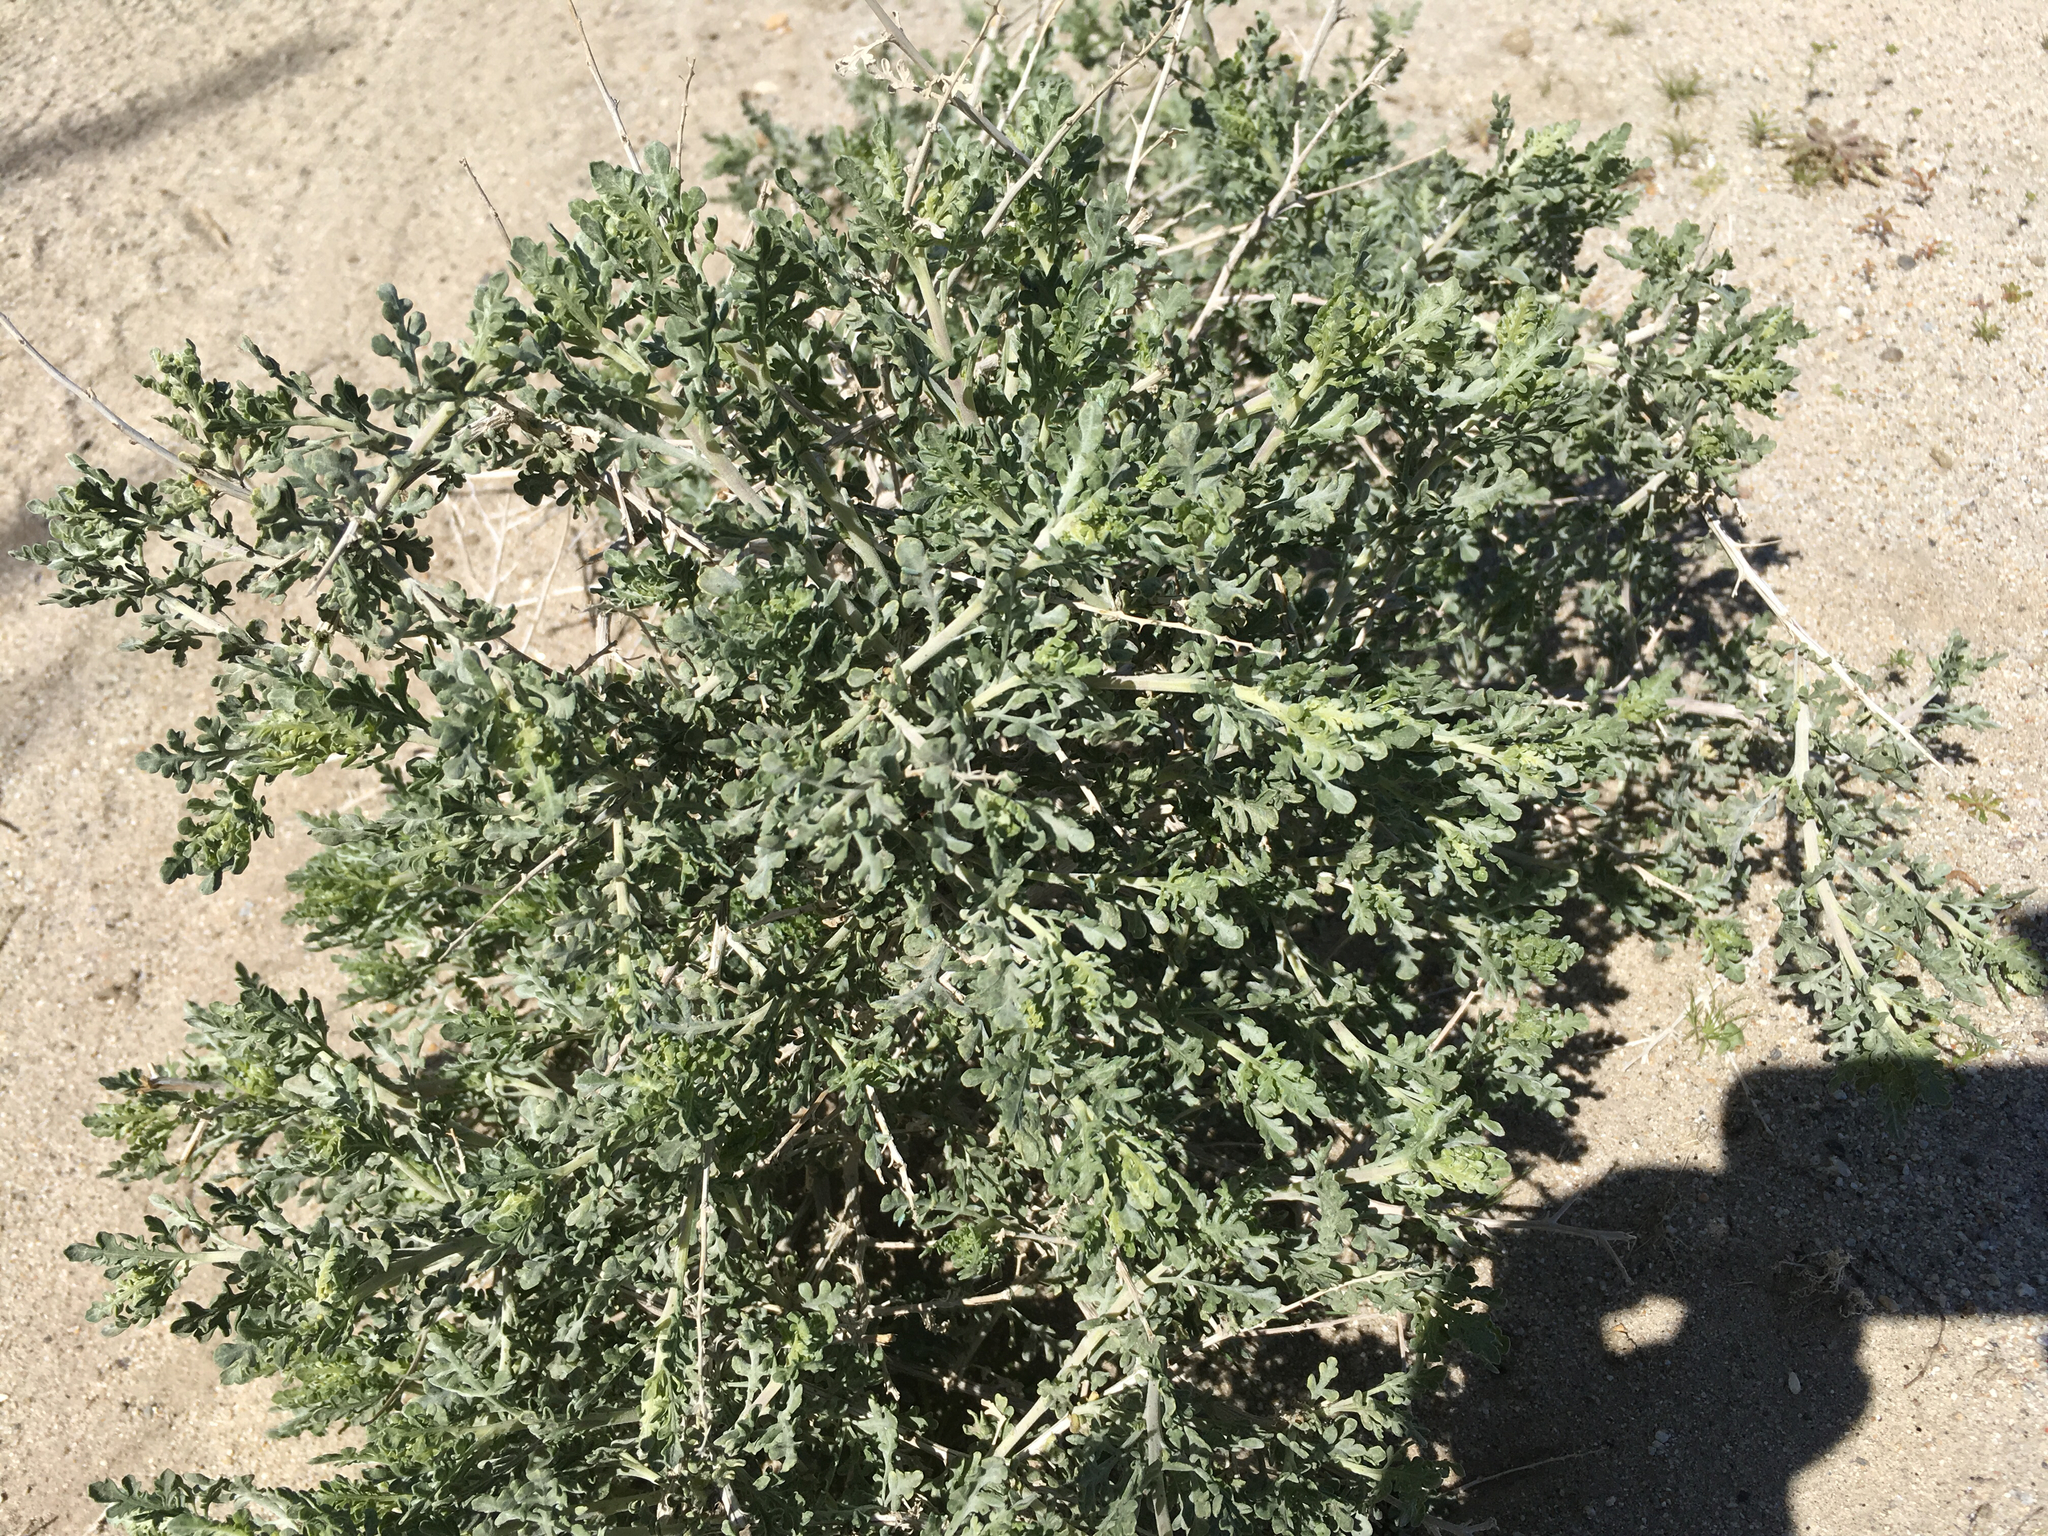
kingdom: Plantae
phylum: Tracheophyta
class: Magnoliopsida
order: Asterales
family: Asteraceae
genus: Ambrosia
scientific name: Ambrosia dumosa
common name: Bur-sage
